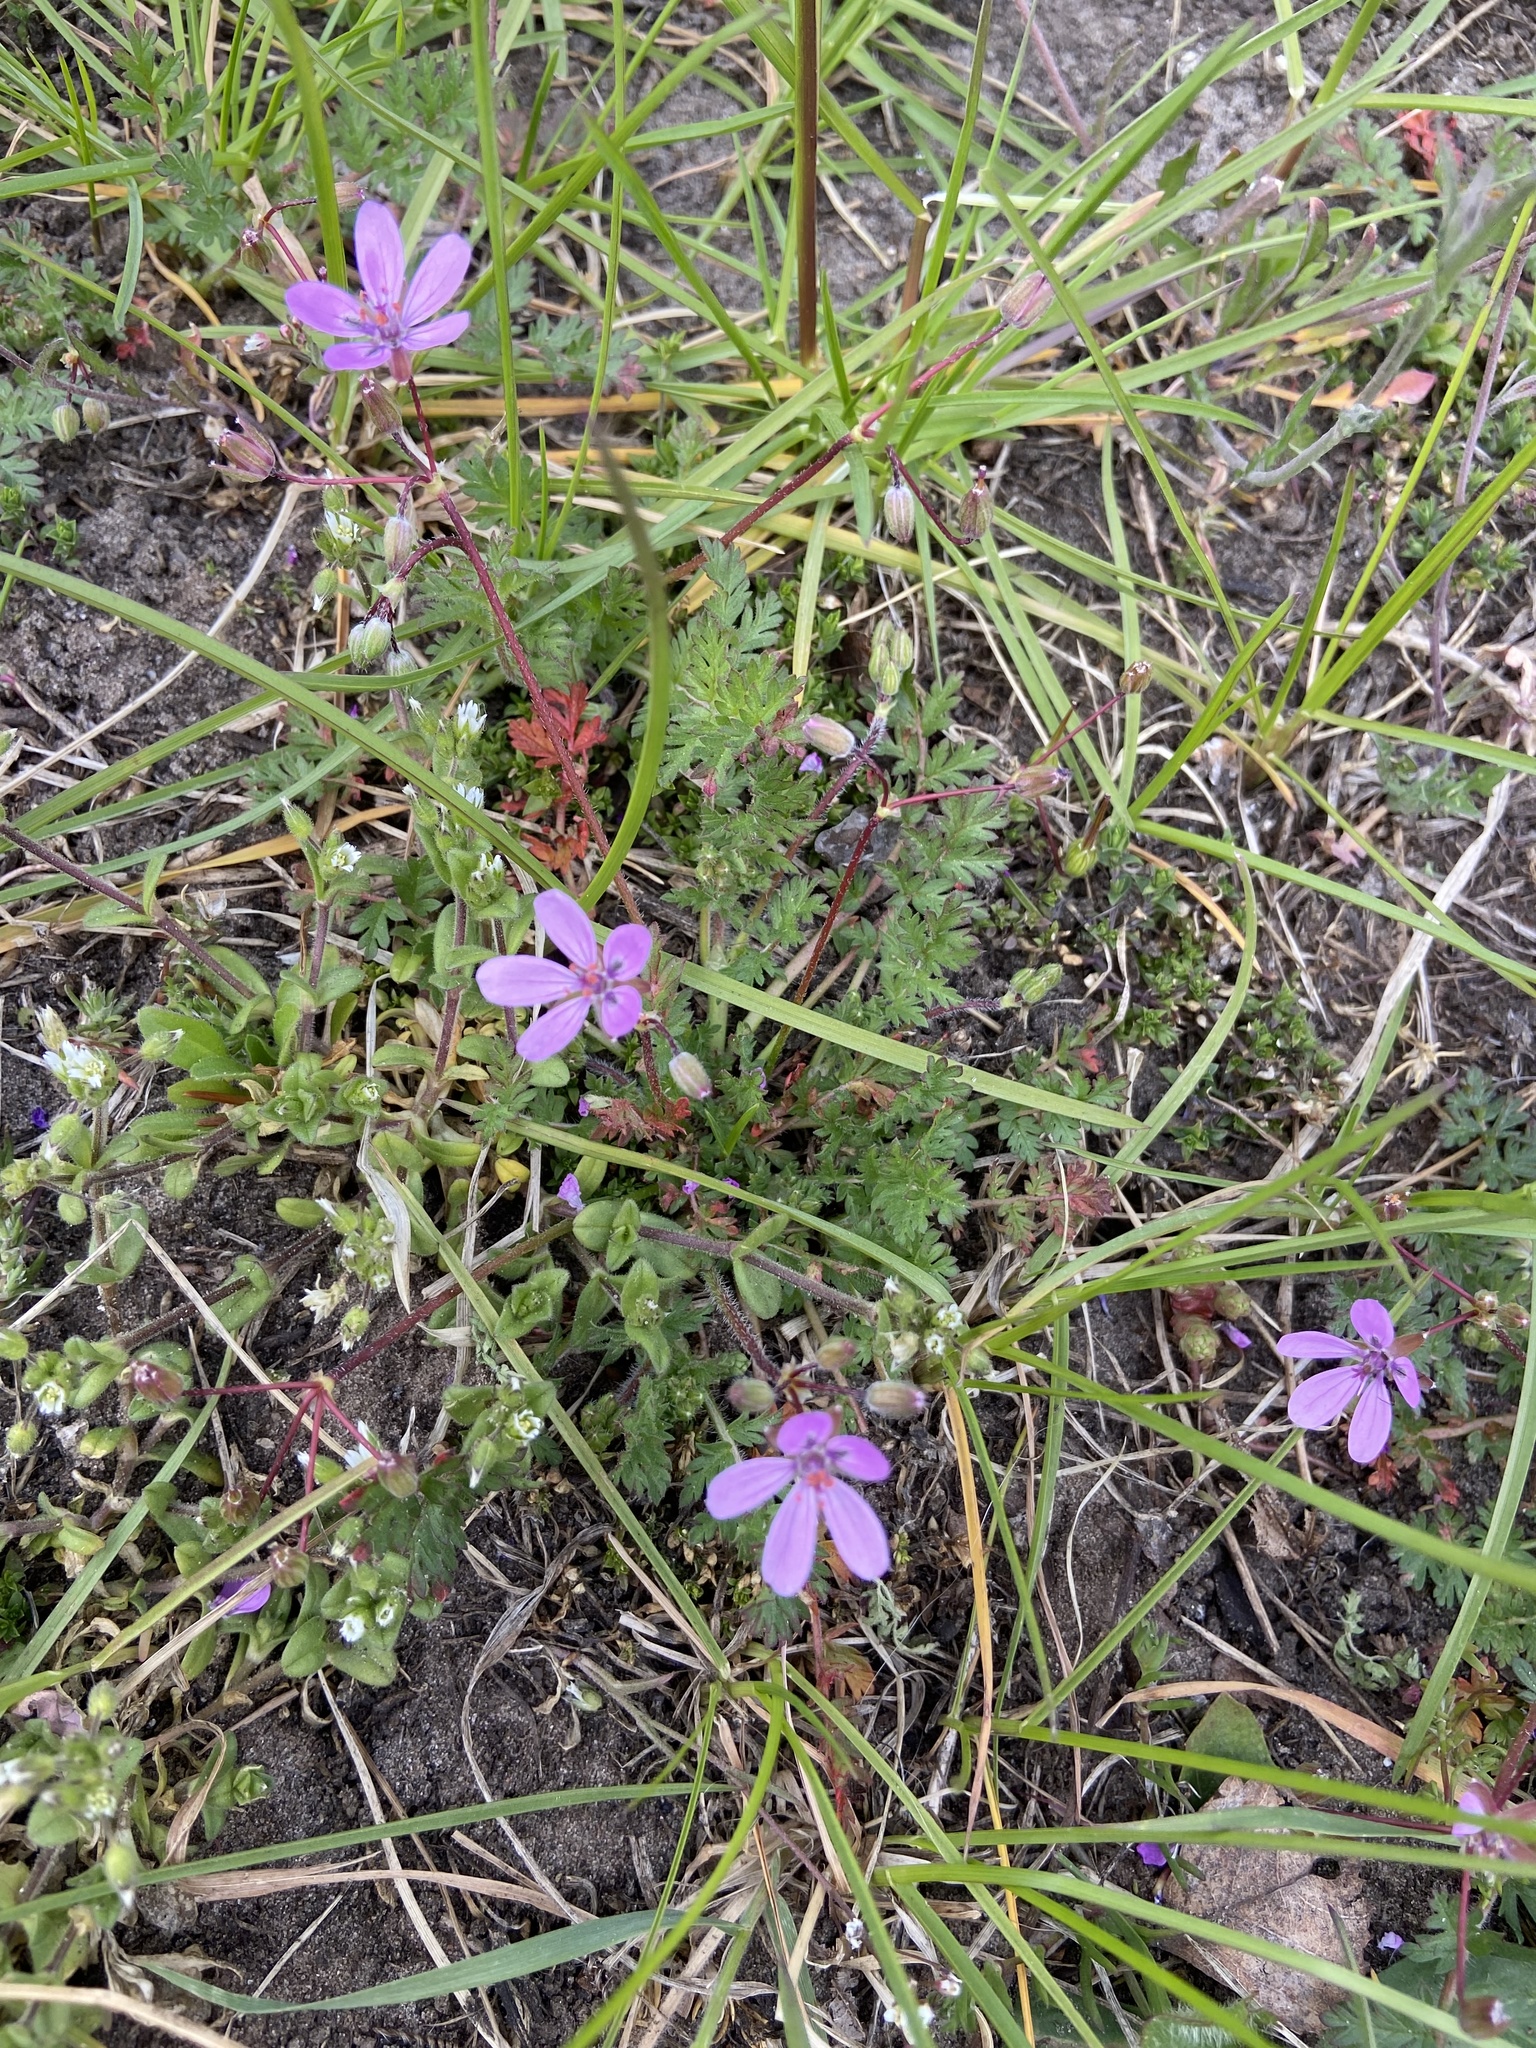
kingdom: Plantae
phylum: Tracheophyta
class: Magnoliopsida
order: Geraniales
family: Geraniaceae
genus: Erodium
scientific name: Erodium cicutarium
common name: Common stork's-bill
